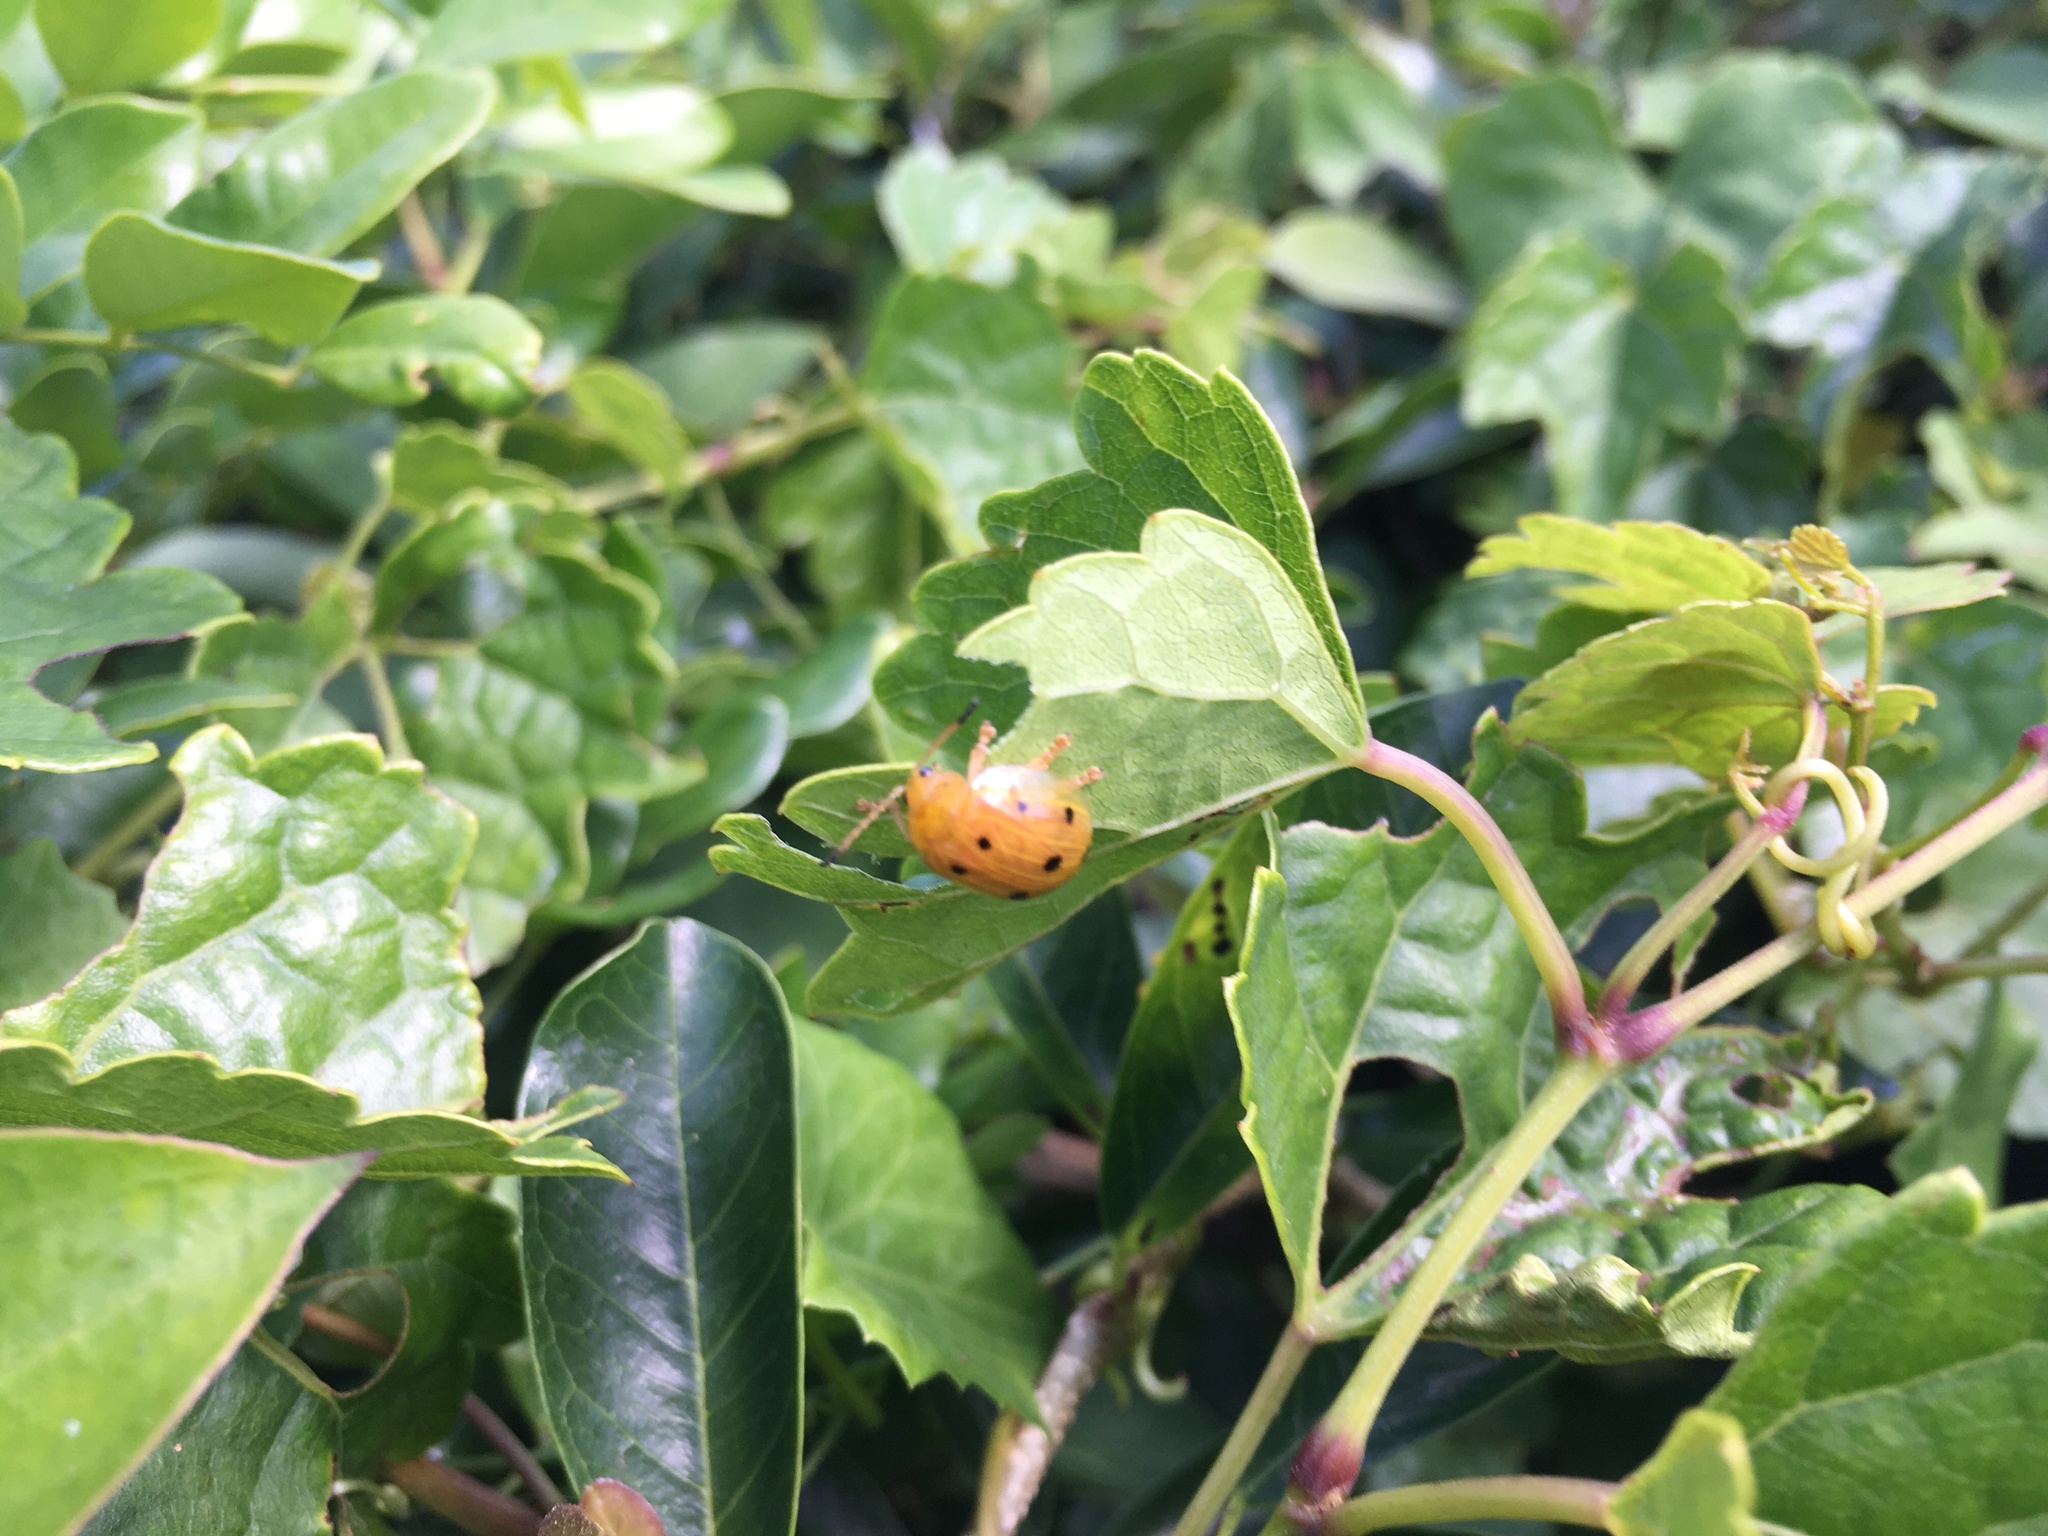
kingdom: Animalia
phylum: Arthropoda
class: Insecta
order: Coleoptera
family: Chrysomelidae
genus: Oides
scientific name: Oides decempunctata
